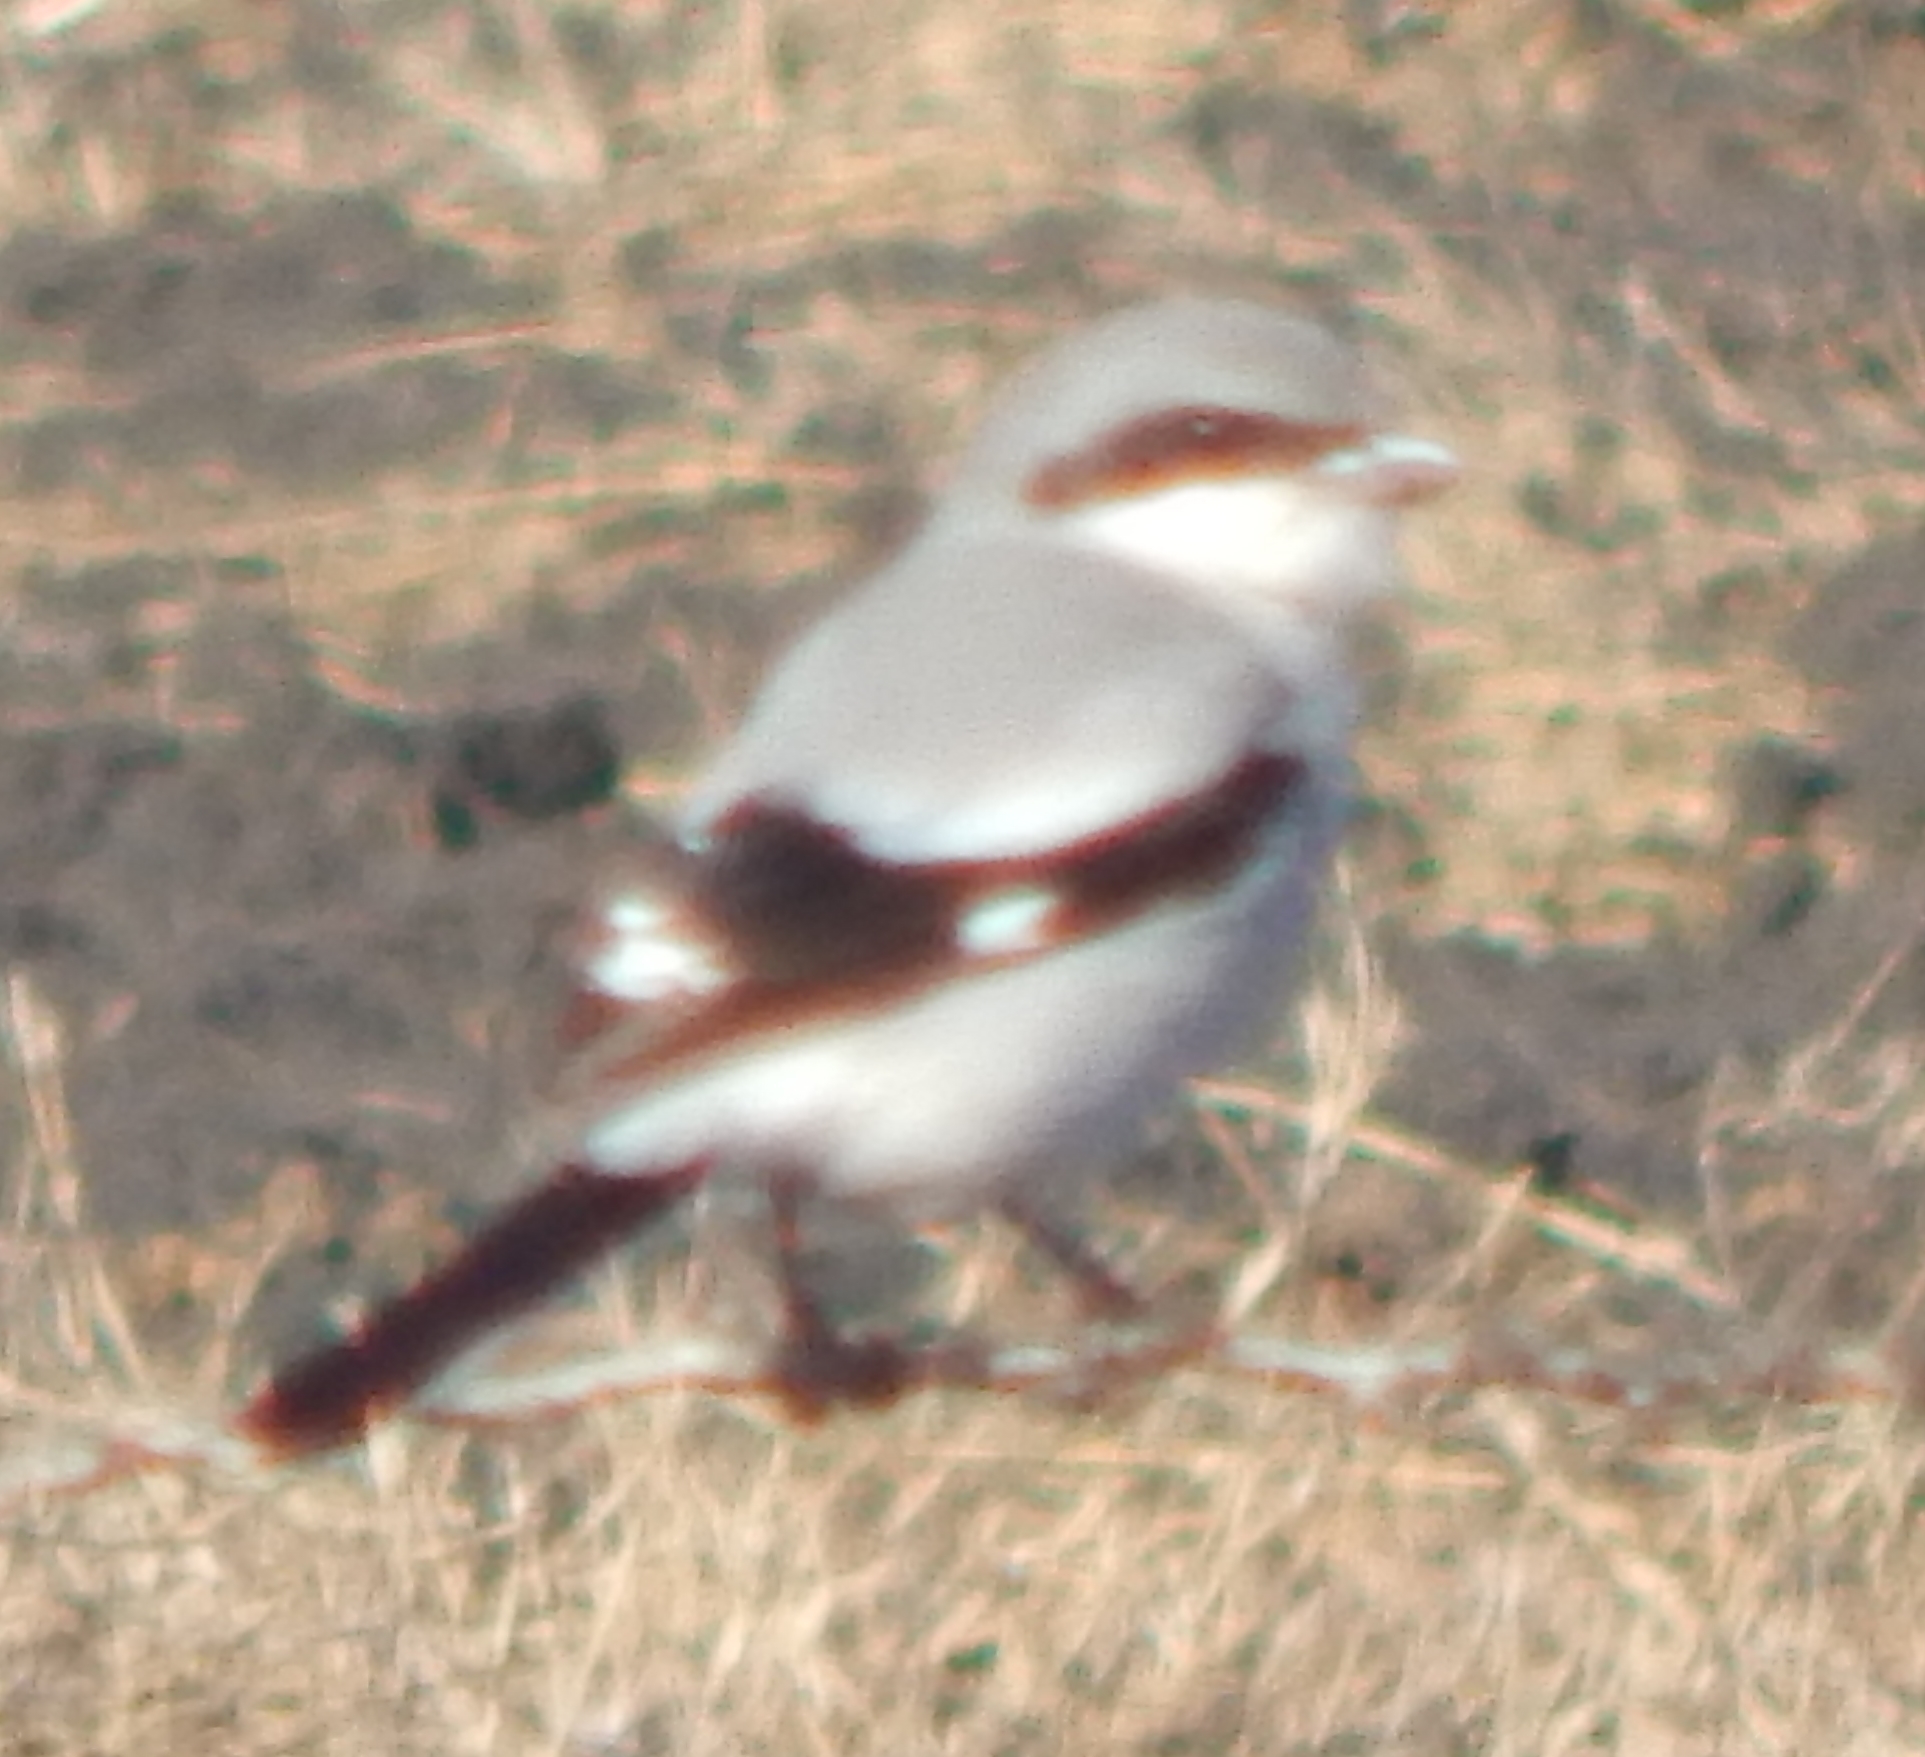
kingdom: Animalia
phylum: Chordata
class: Aves
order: Passeriformes
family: Laniidae
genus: Lanius
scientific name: Lanius ludovicianus
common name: Loggerhead shrike
